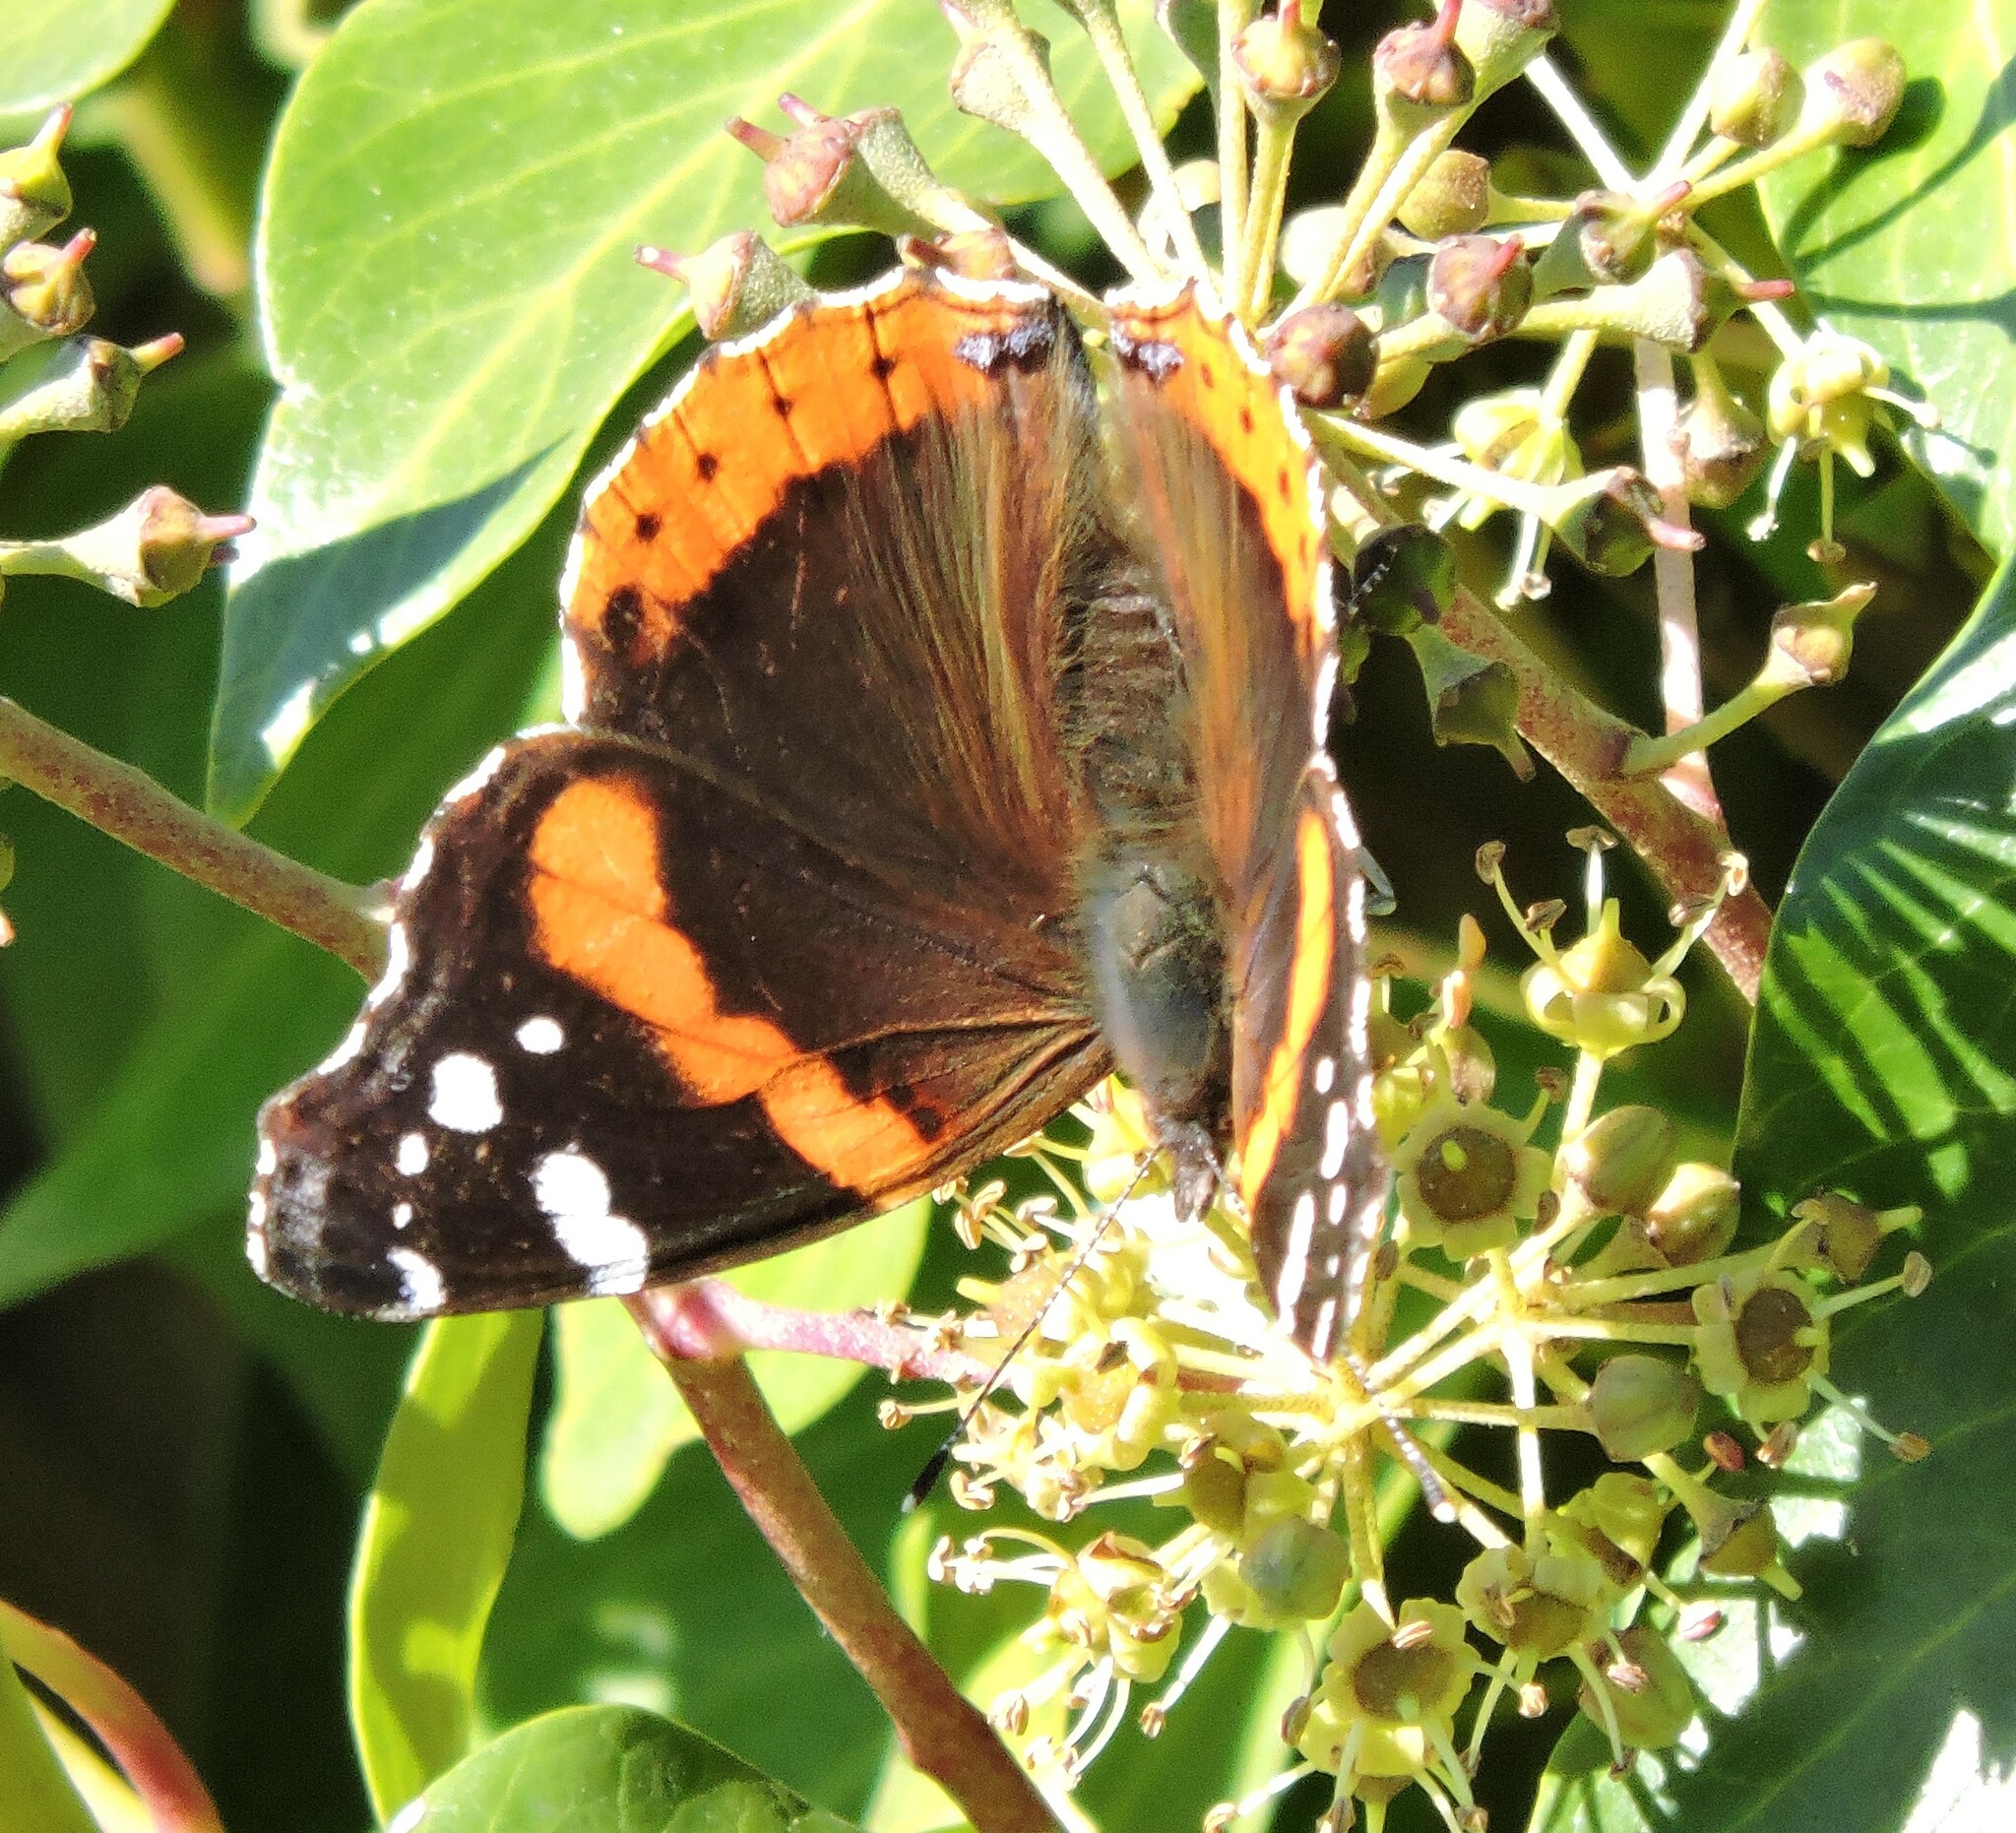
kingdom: Animalia
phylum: Arthropoda
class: Insecta
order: Lepidoptera
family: Nymphalidae
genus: Vanessa
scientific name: Vanessa atalanta
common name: Red admiral
